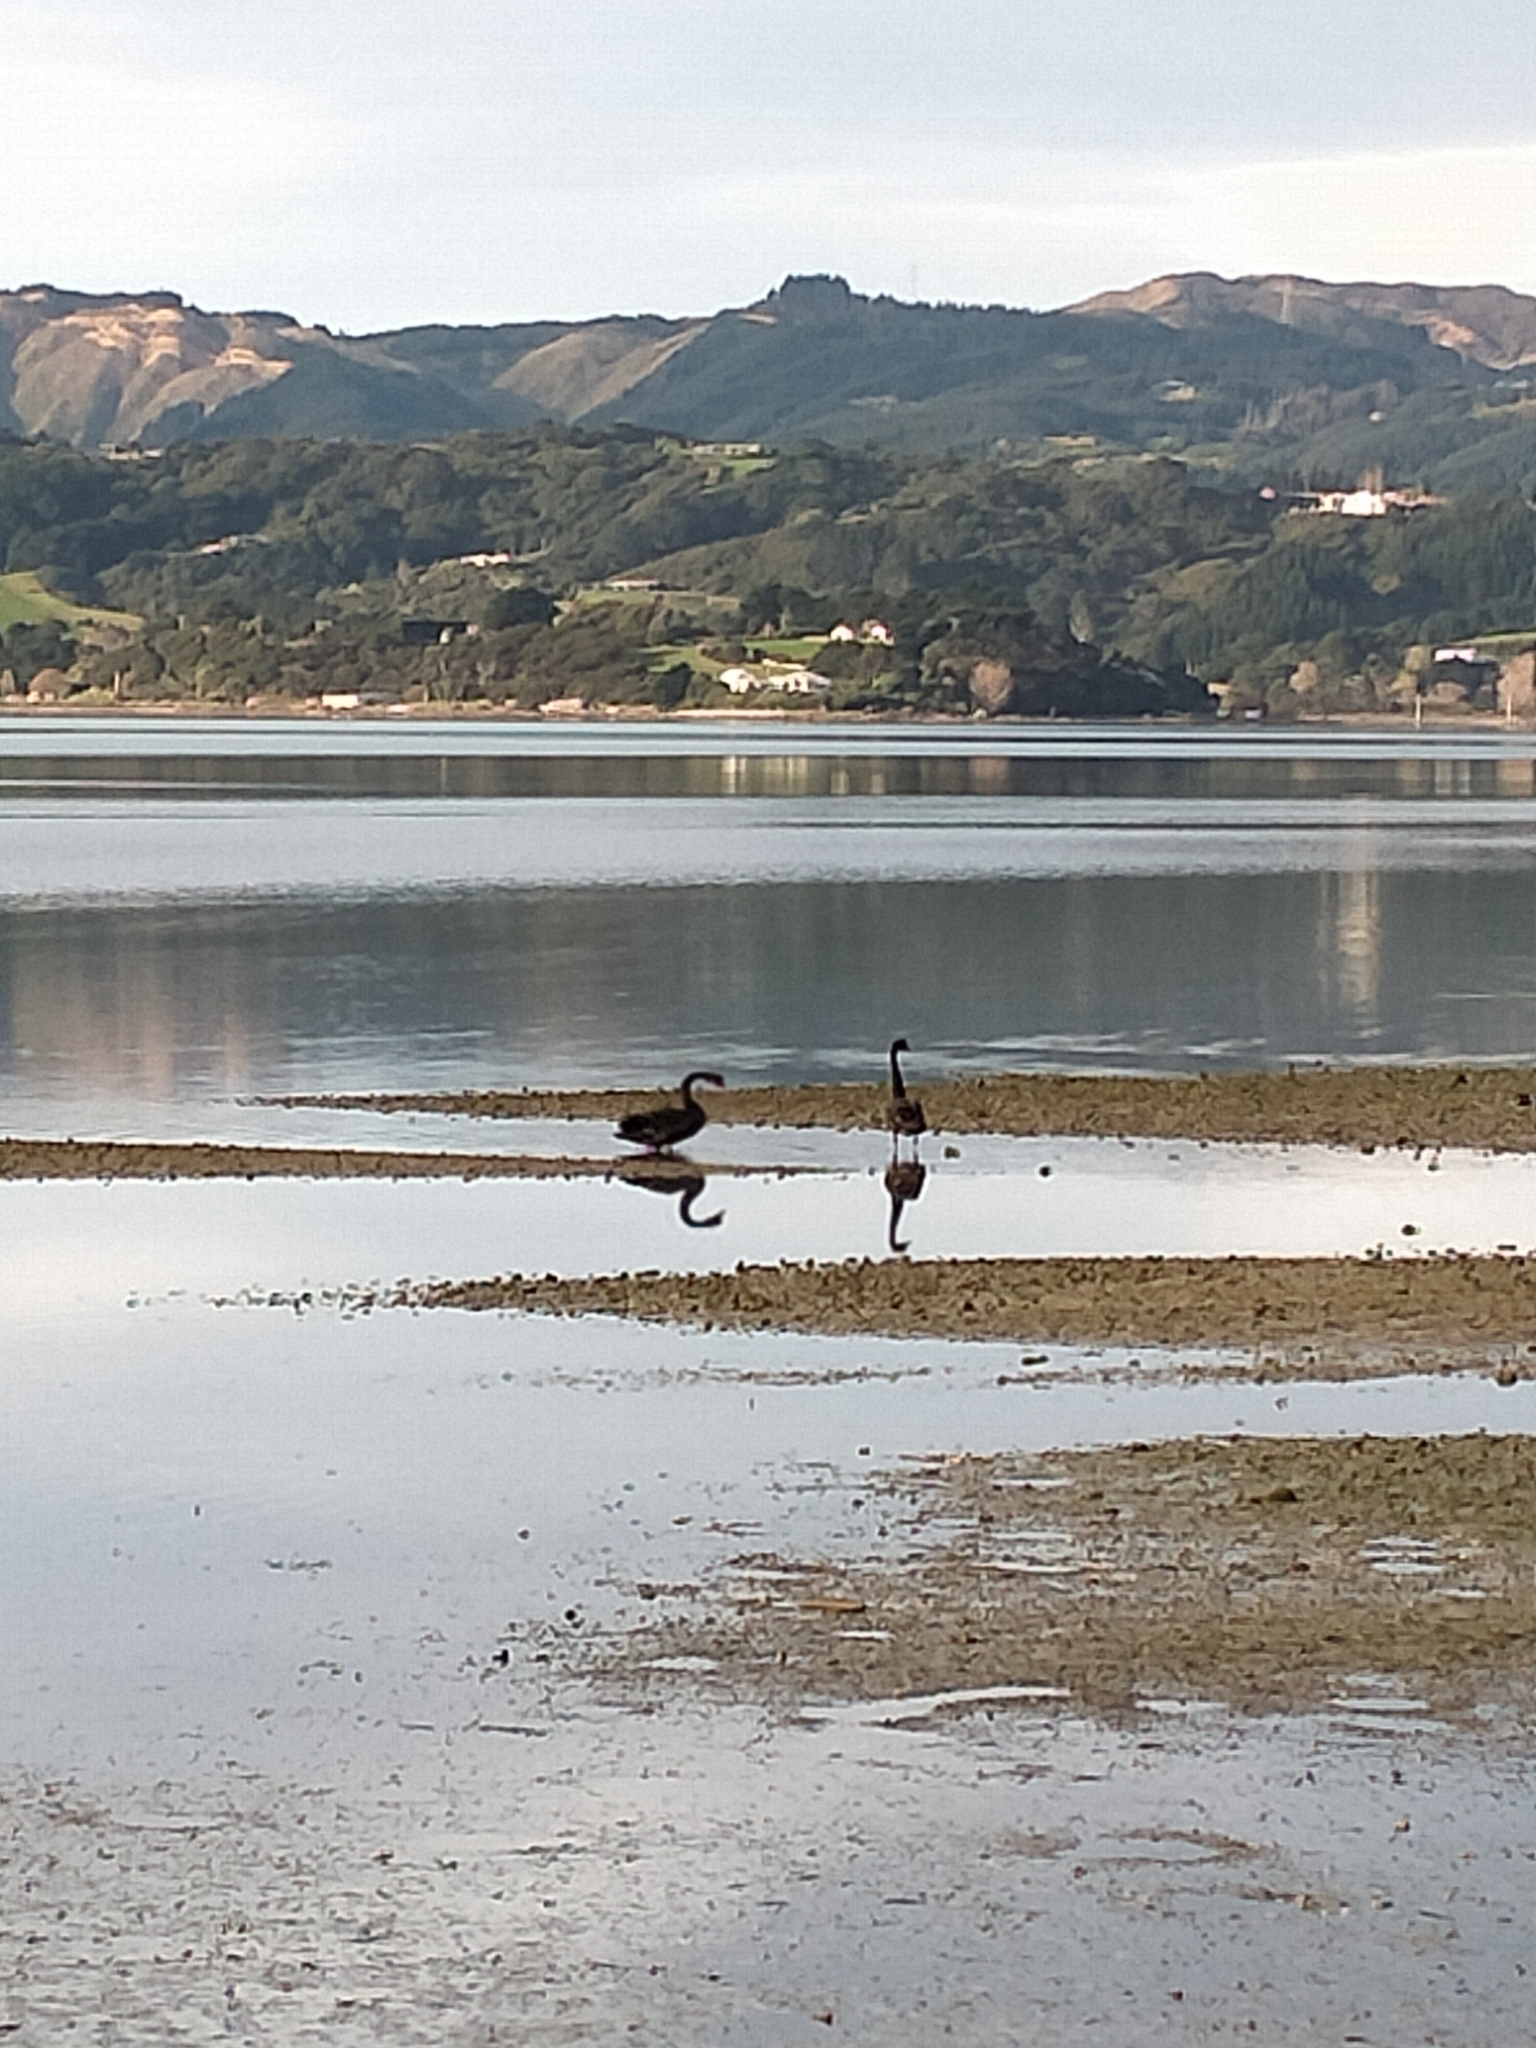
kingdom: Animalia
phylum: Chordata
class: Aves
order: Anseriformes
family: Anatidae
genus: Cygnus
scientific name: Cygnus atratus
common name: Black swan
